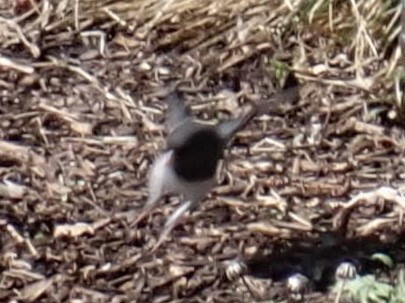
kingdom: Animalia
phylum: Chordata
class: Aves
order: Passeriformes
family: Passerellidae
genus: Junco
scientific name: Junco hyemalis
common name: Dark-eyed junco
